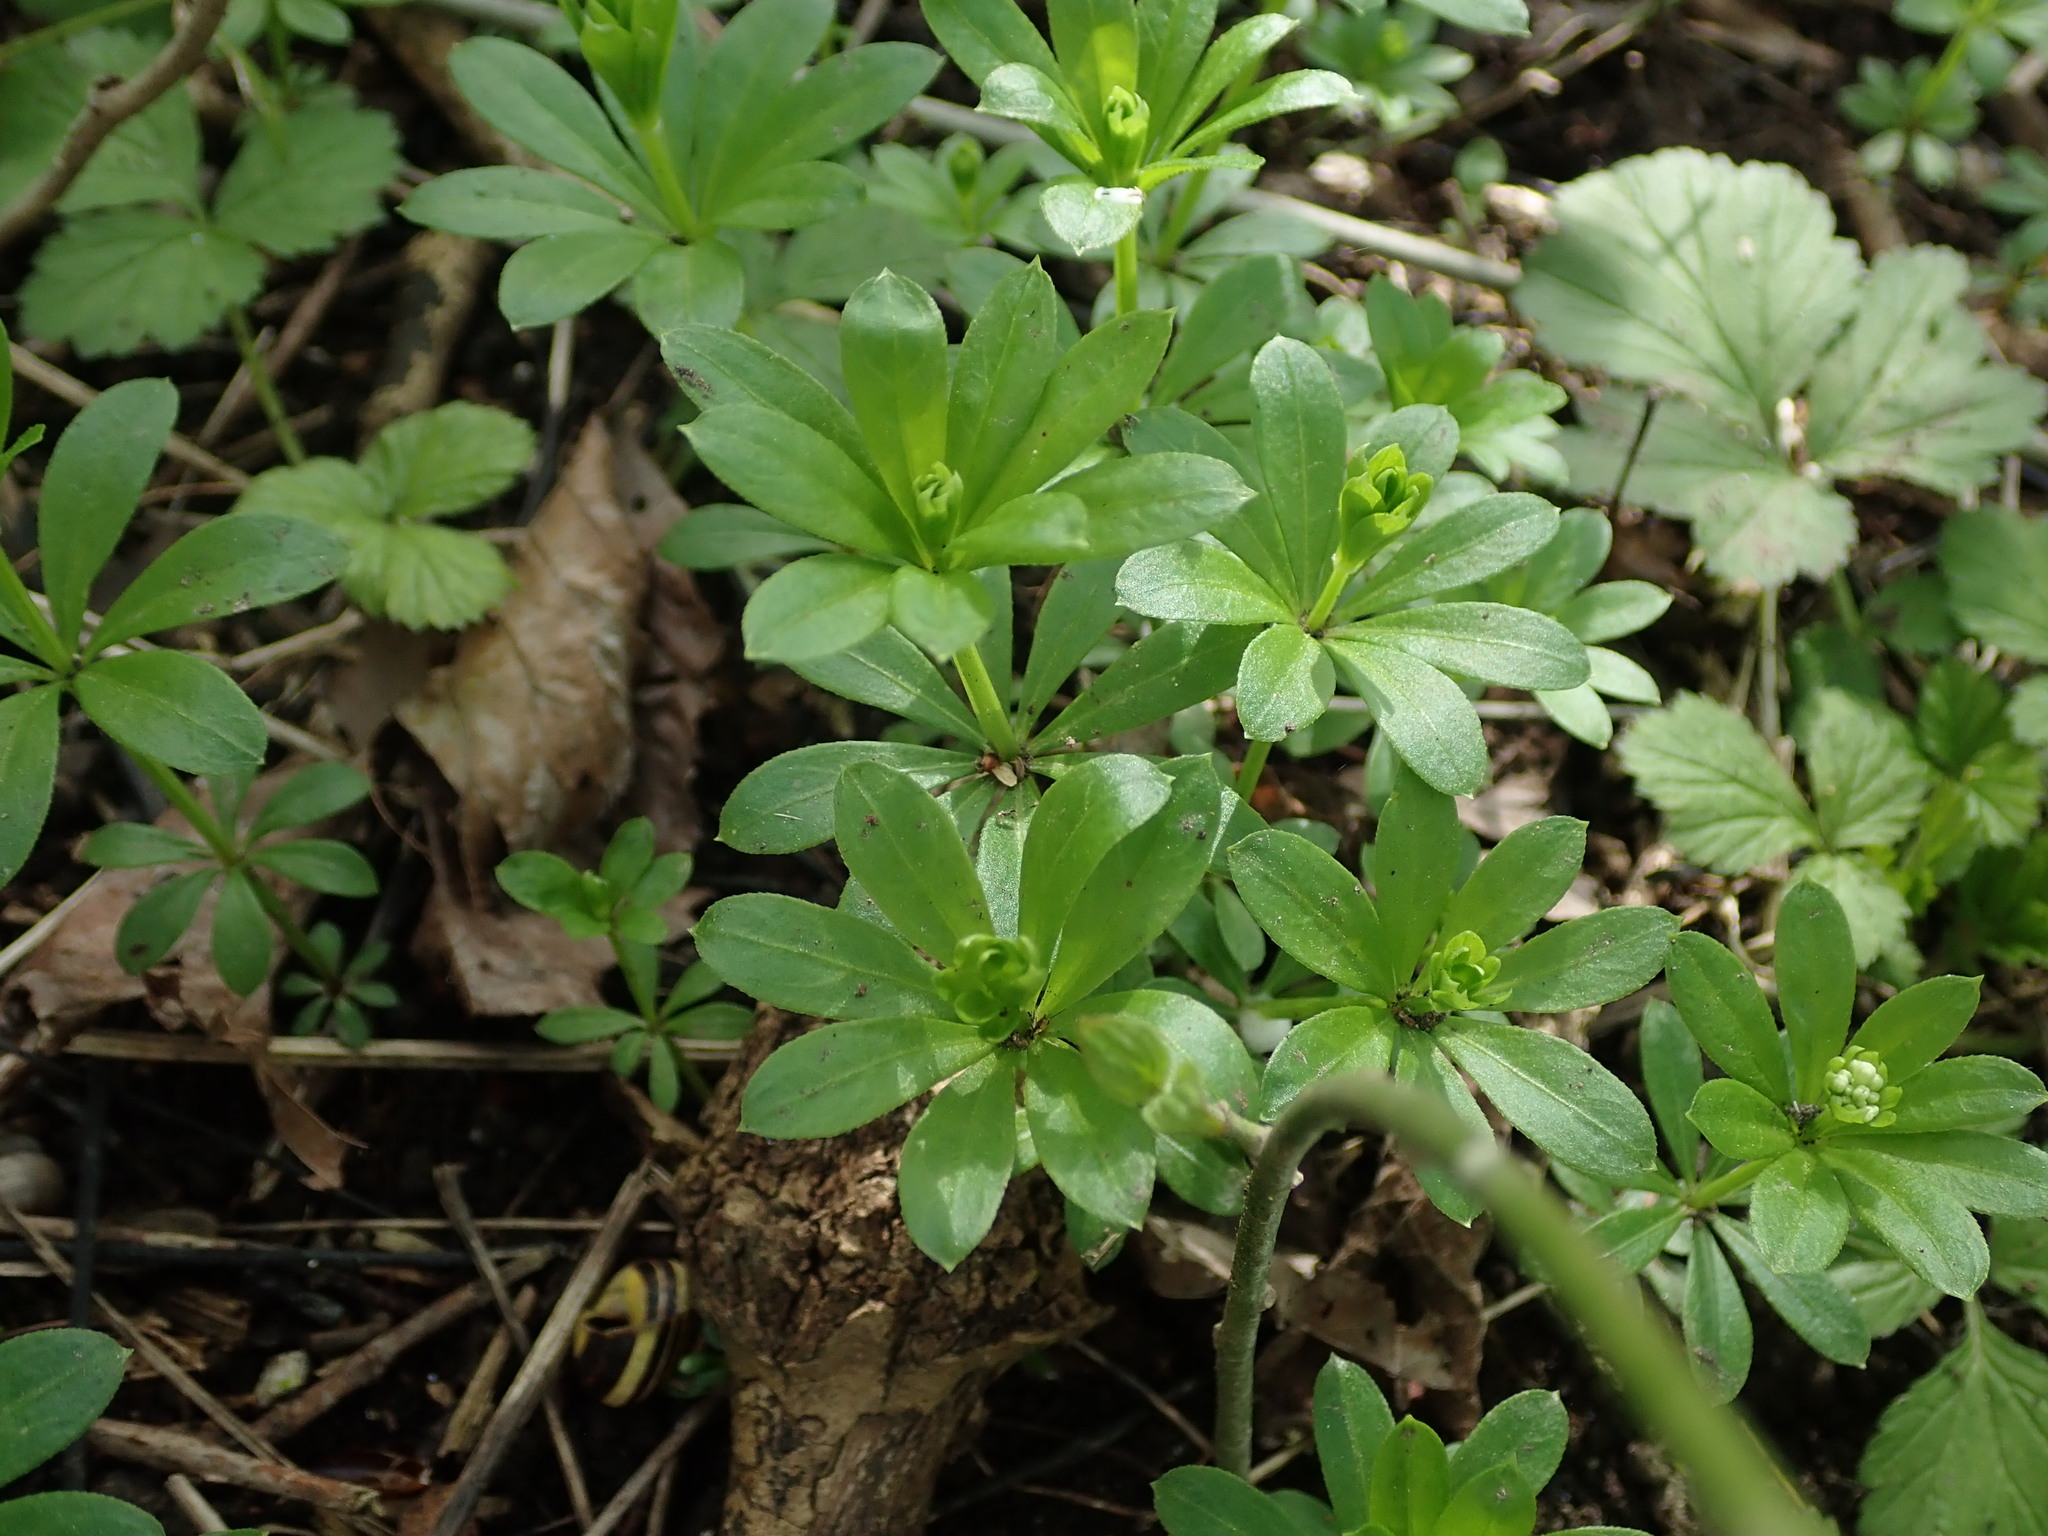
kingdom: Plantae
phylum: Tracheophyta
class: Magnoliopsida
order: Gentianales
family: Rubiaceae
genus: Galium
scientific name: Galium odoratum
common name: Sweet woodruff
